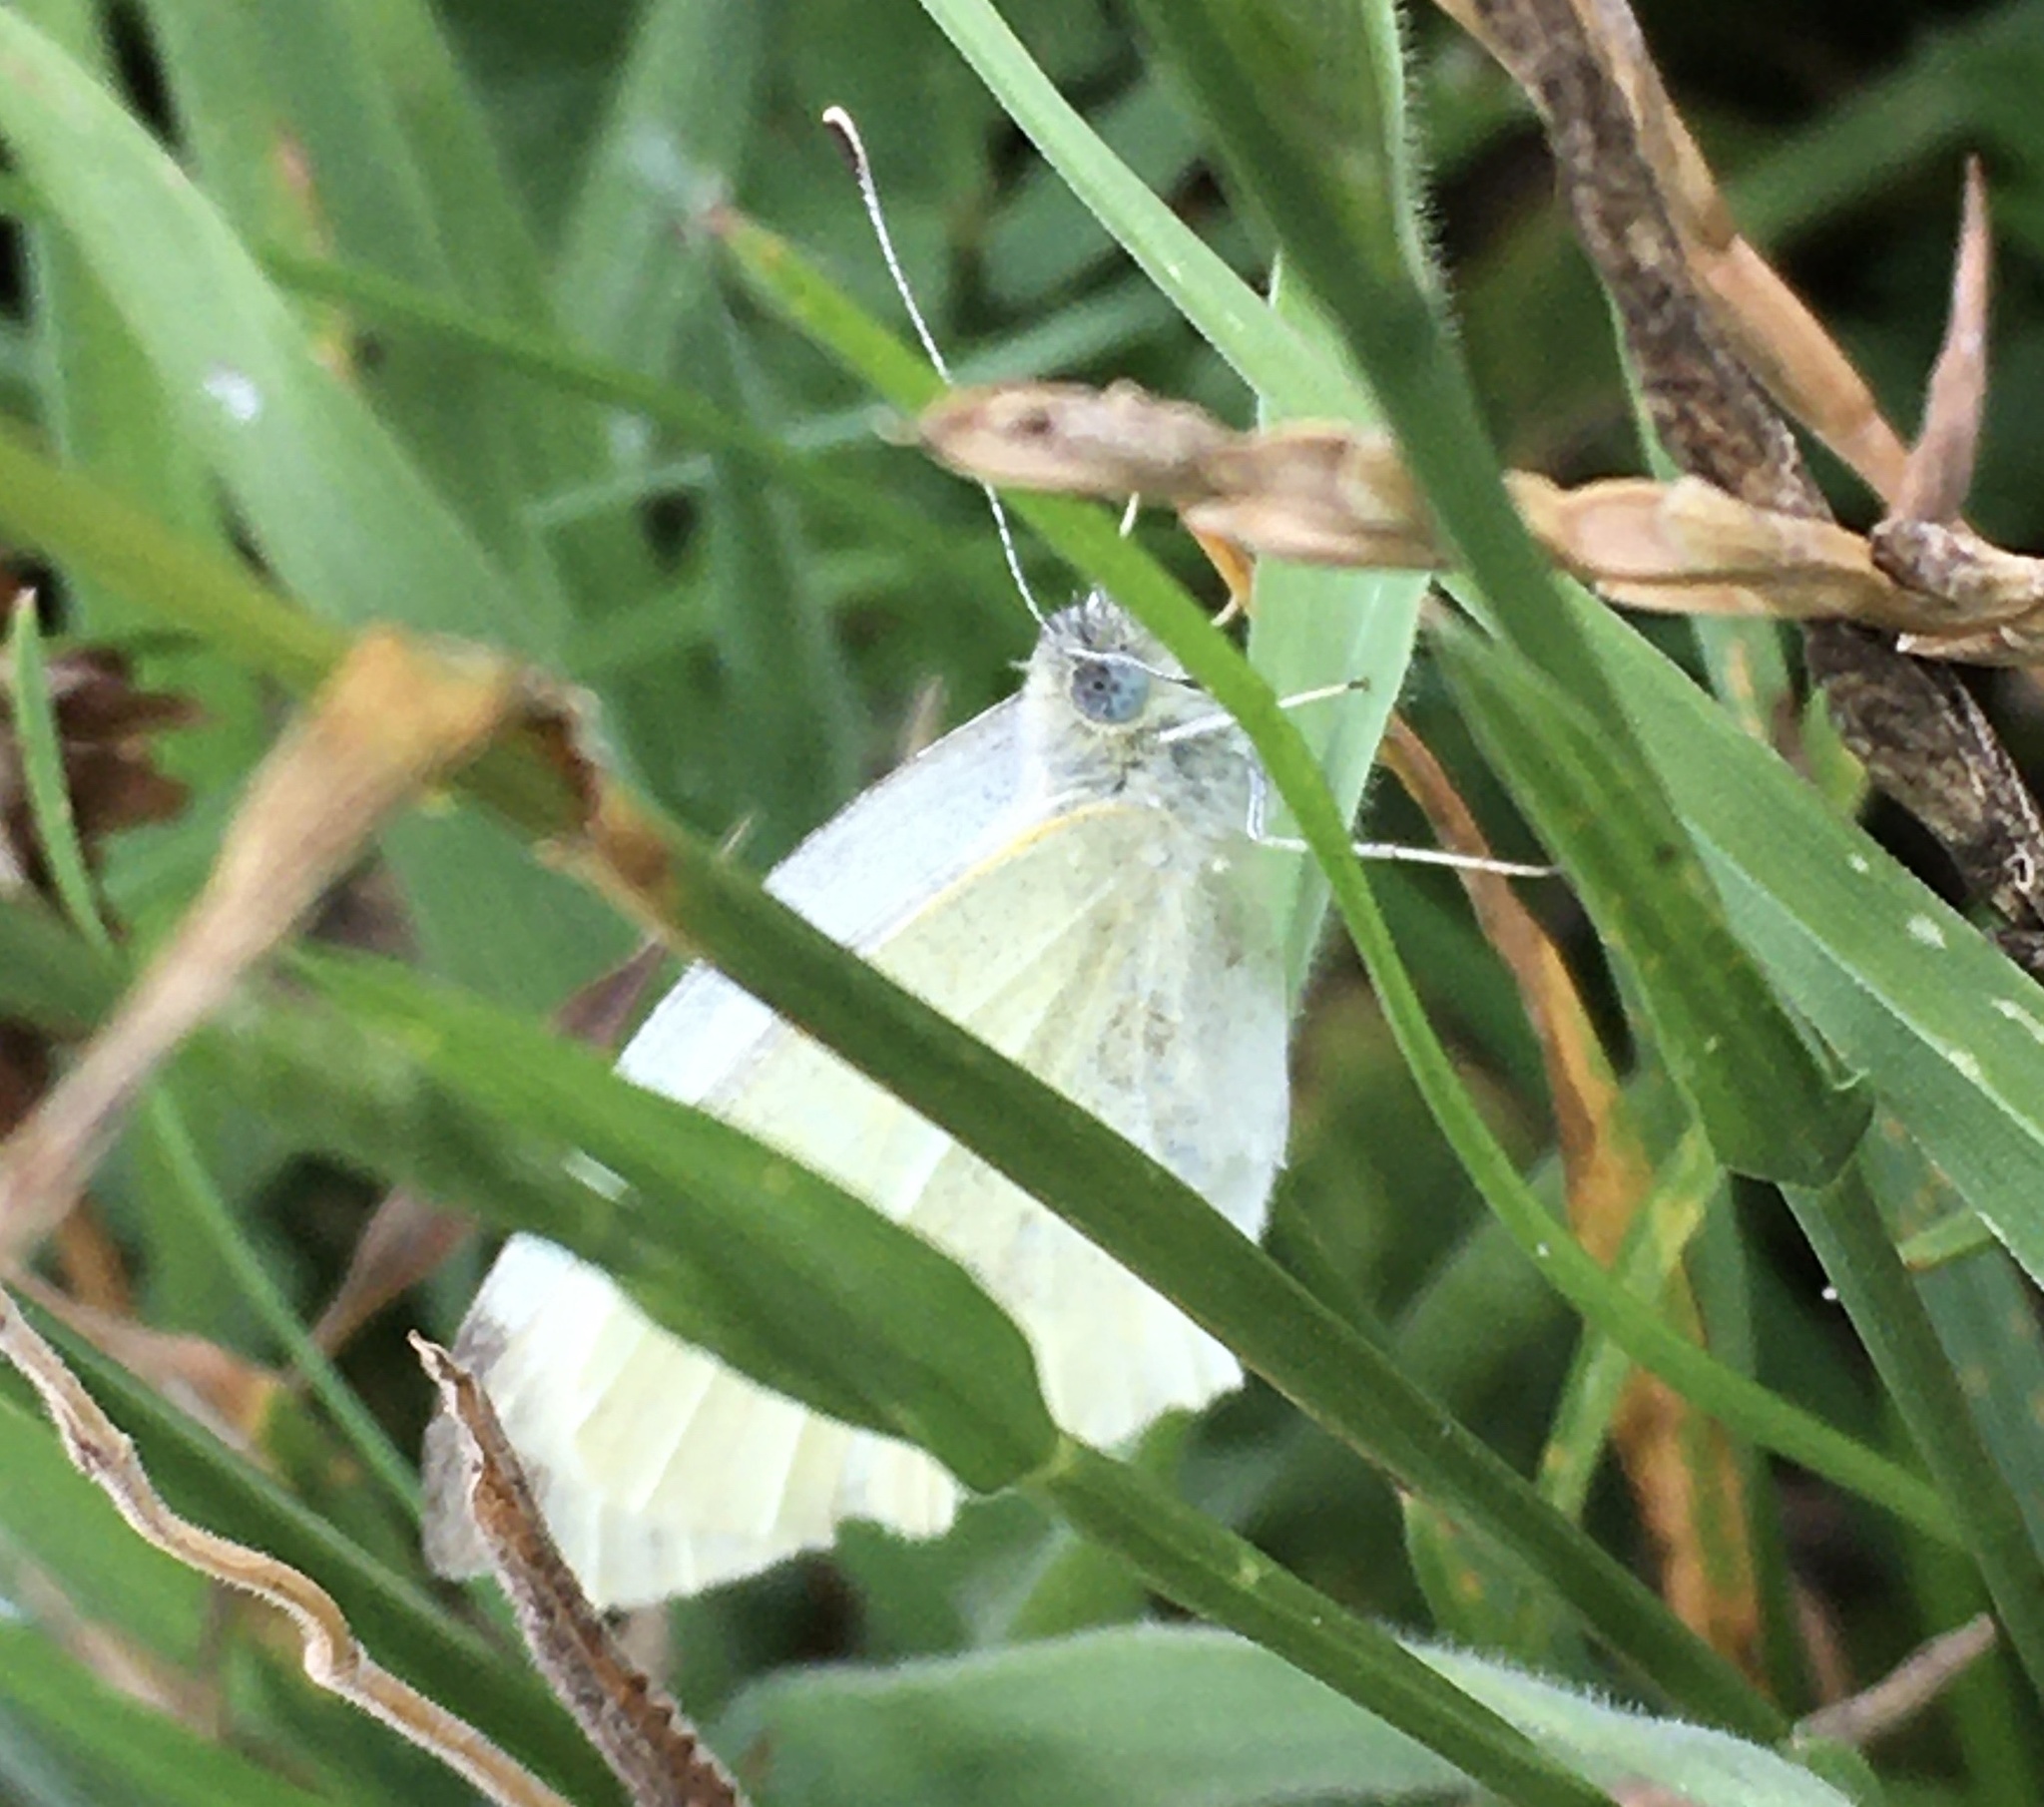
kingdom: Animalia
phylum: Arthropoda
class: Insecta
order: Lepidoptera
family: Pieridae
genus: Pieris
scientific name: Pieris rapae
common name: Small white
